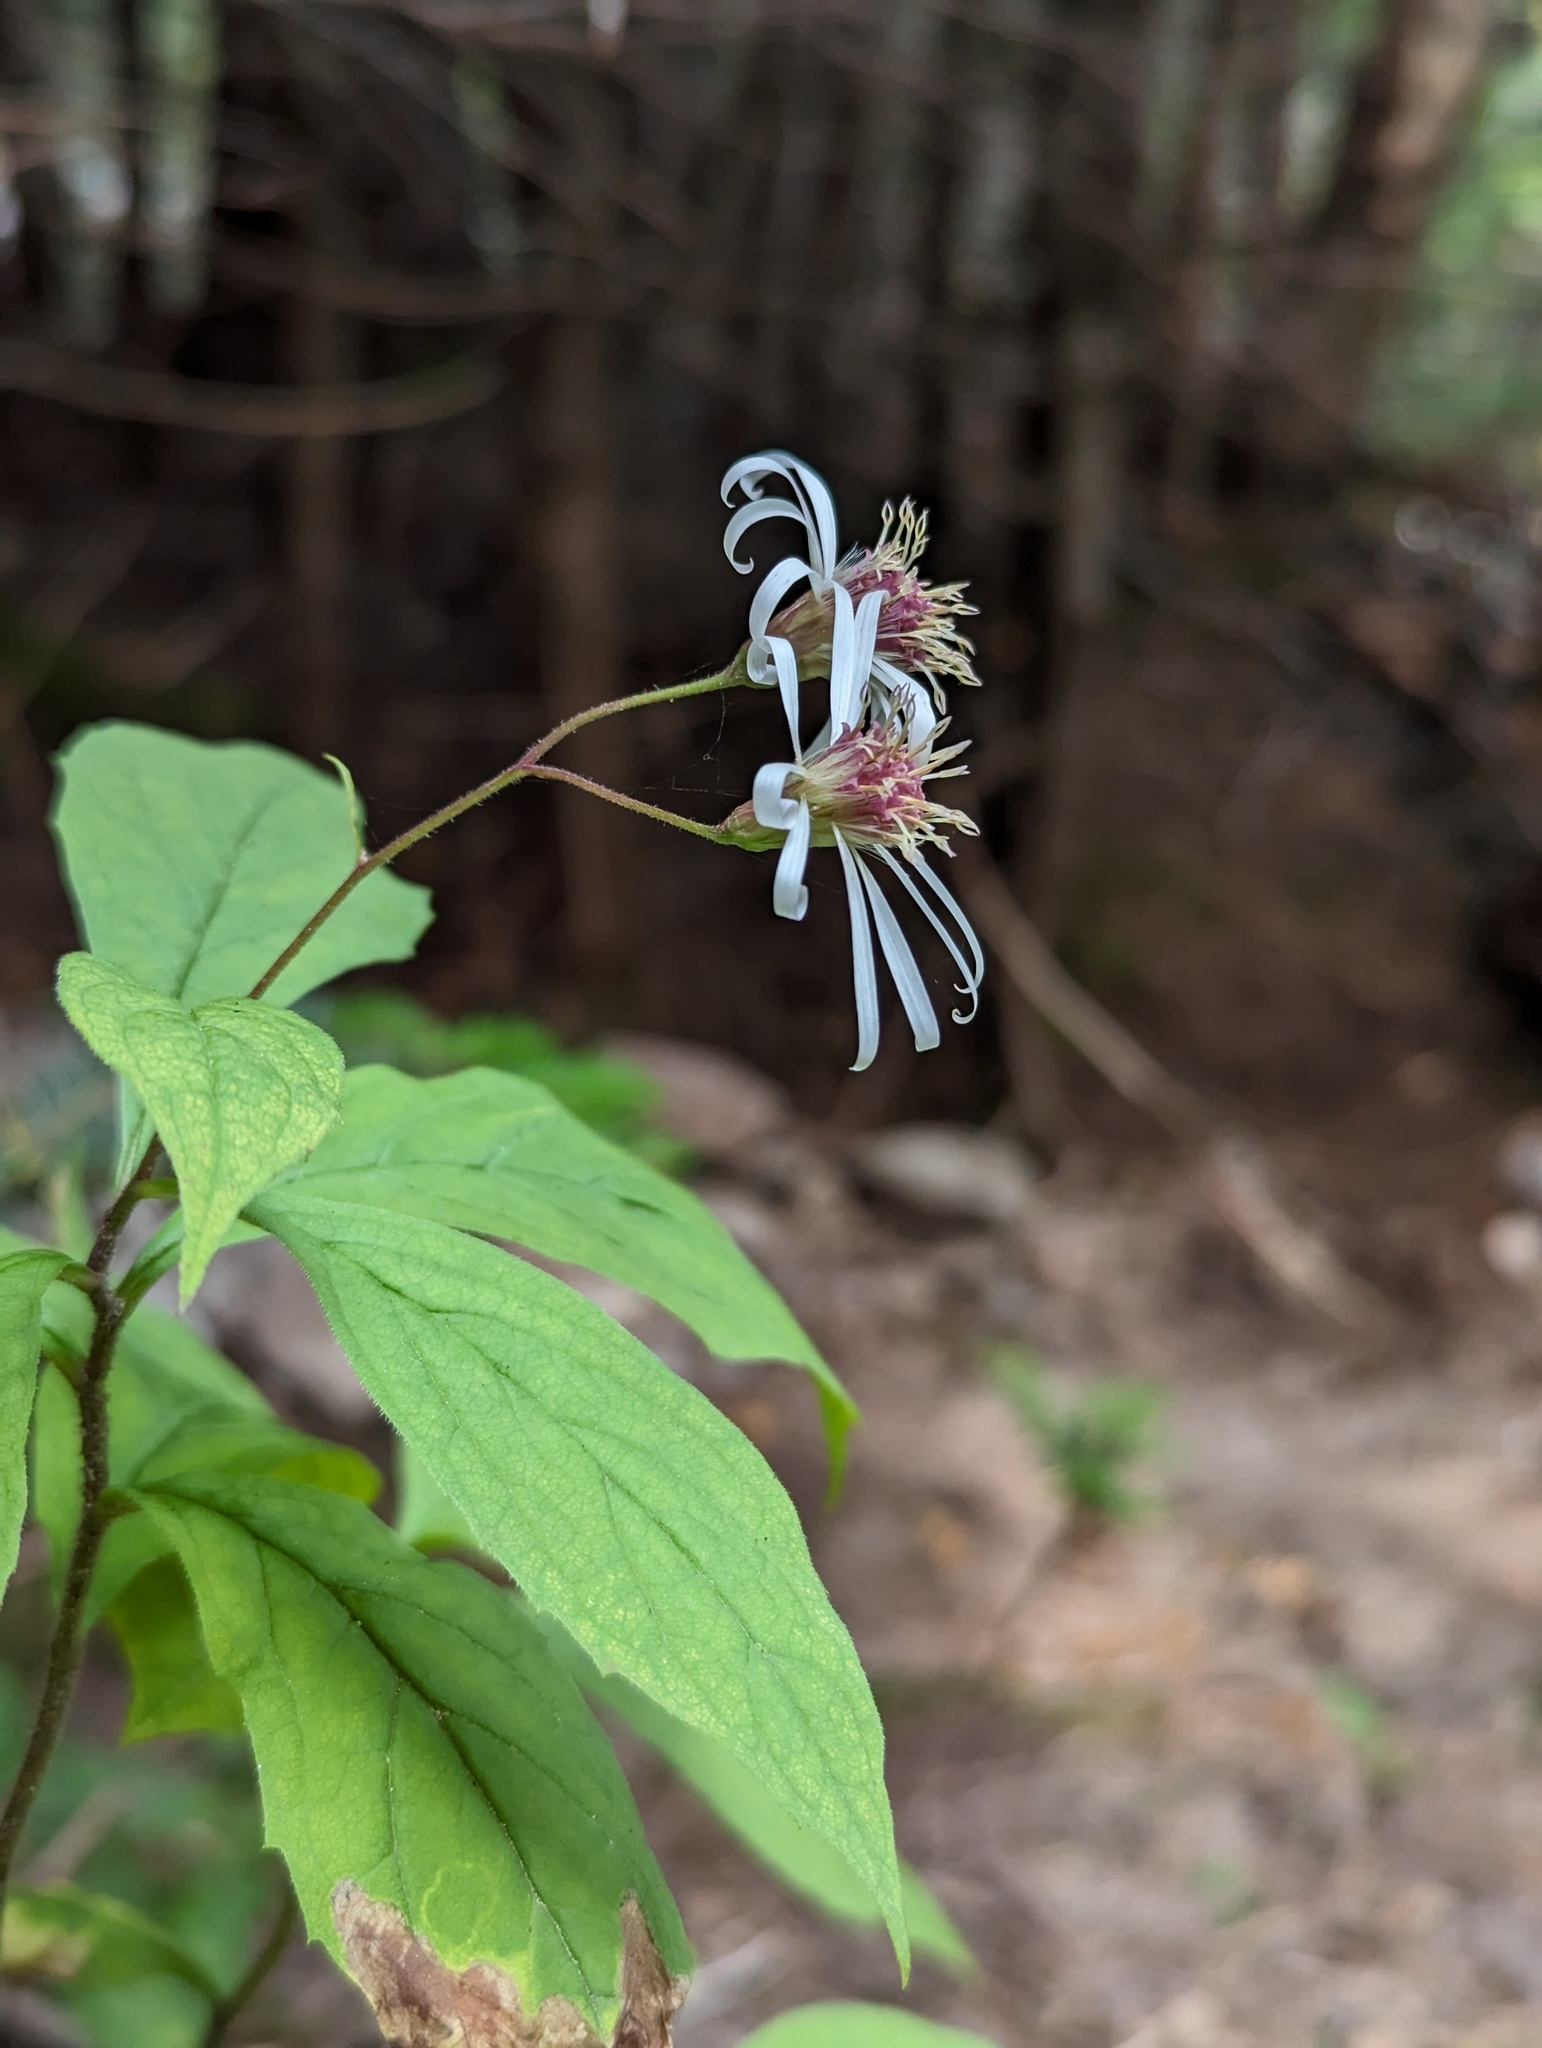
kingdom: Plantae
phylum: Tracheophyta
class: Magnoliopsida
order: Asterales
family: Asteraceae
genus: Oclemena
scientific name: Oclemena acuminata
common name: Mountain aster
